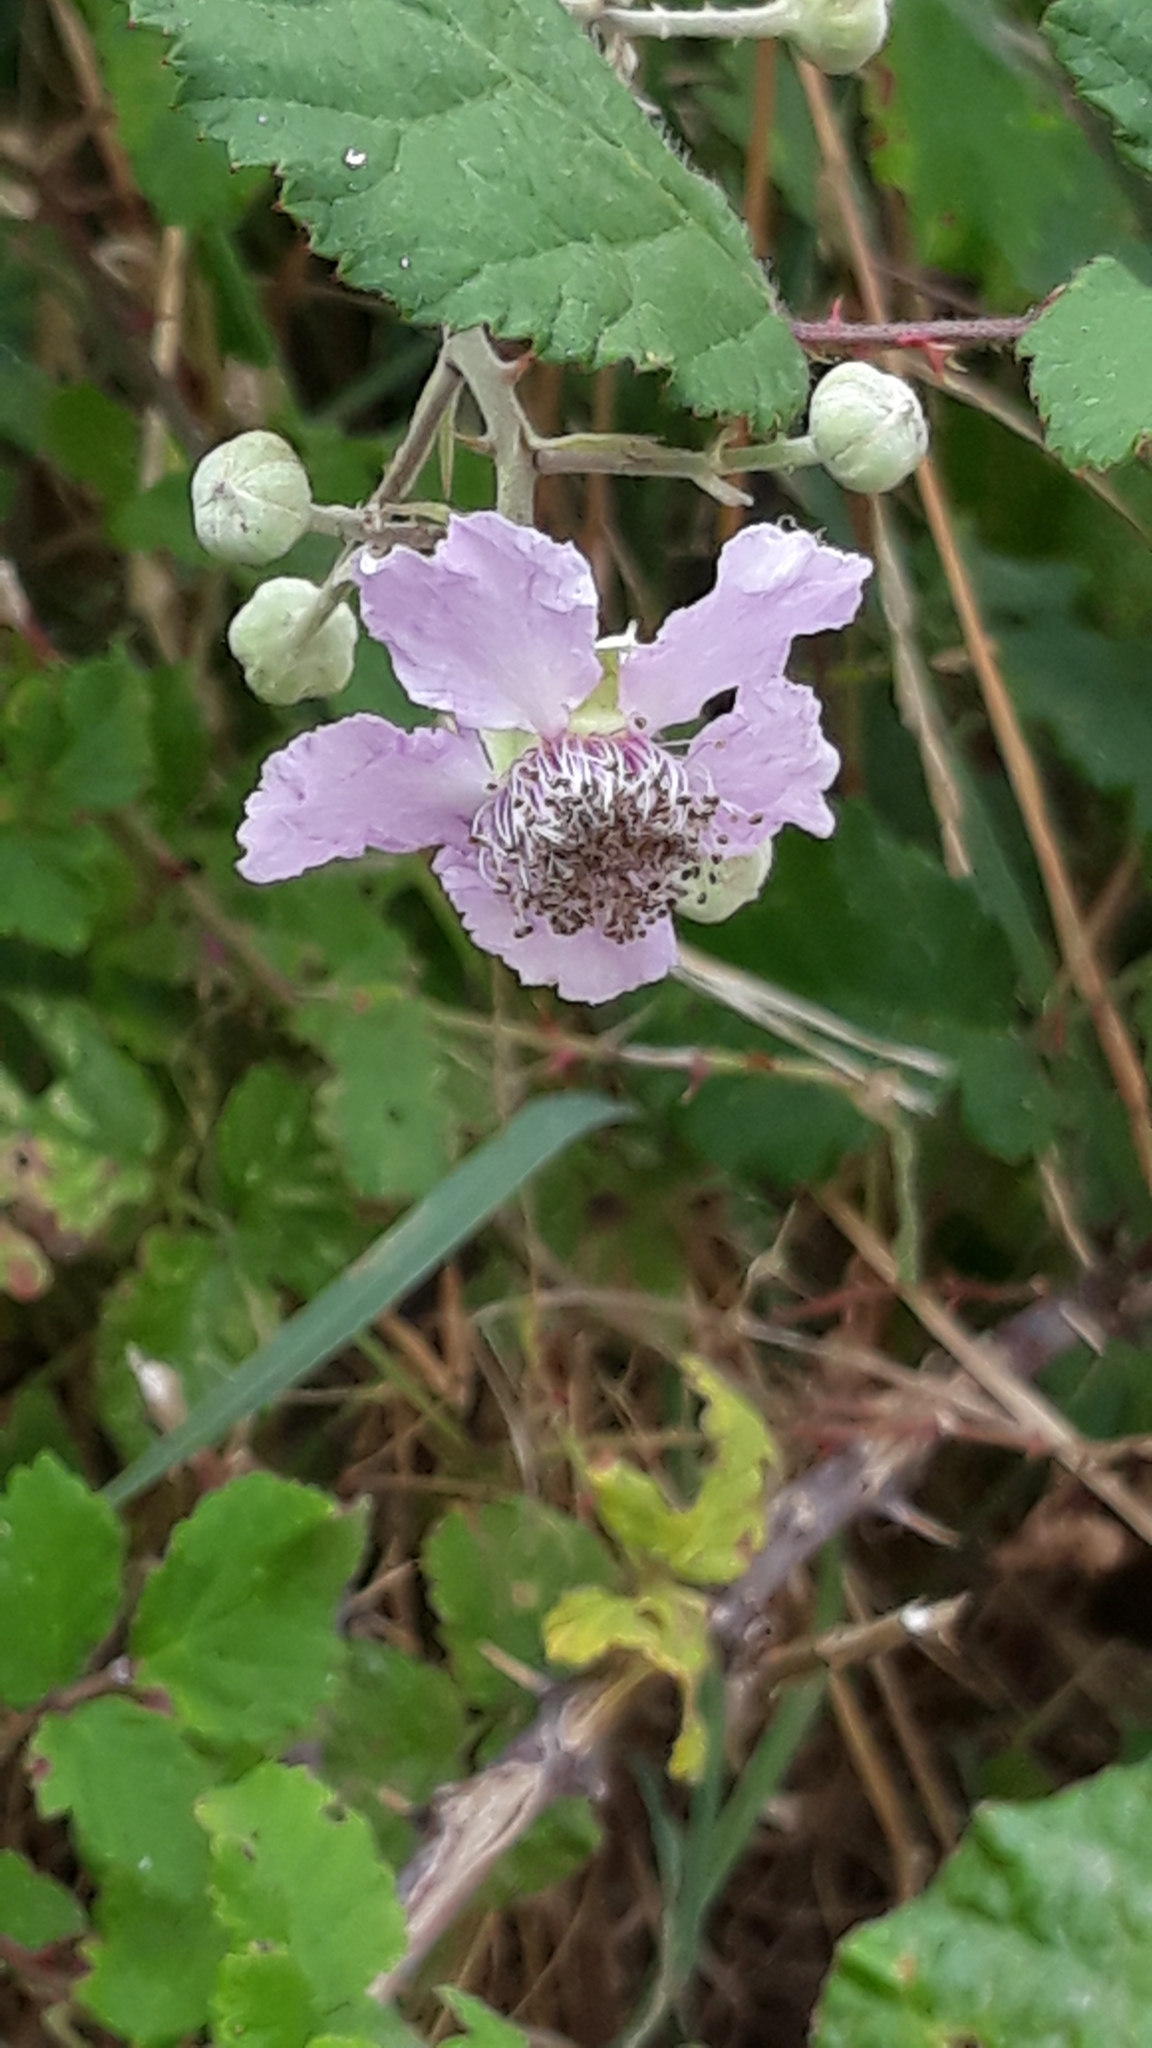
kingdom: Plantae
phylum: Tracheophyta
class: Magnoliopsida
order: Rosales
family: Rosaceae
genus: Rubus
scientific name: Rubus ulmifolius
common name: Elmleaf blackberry
